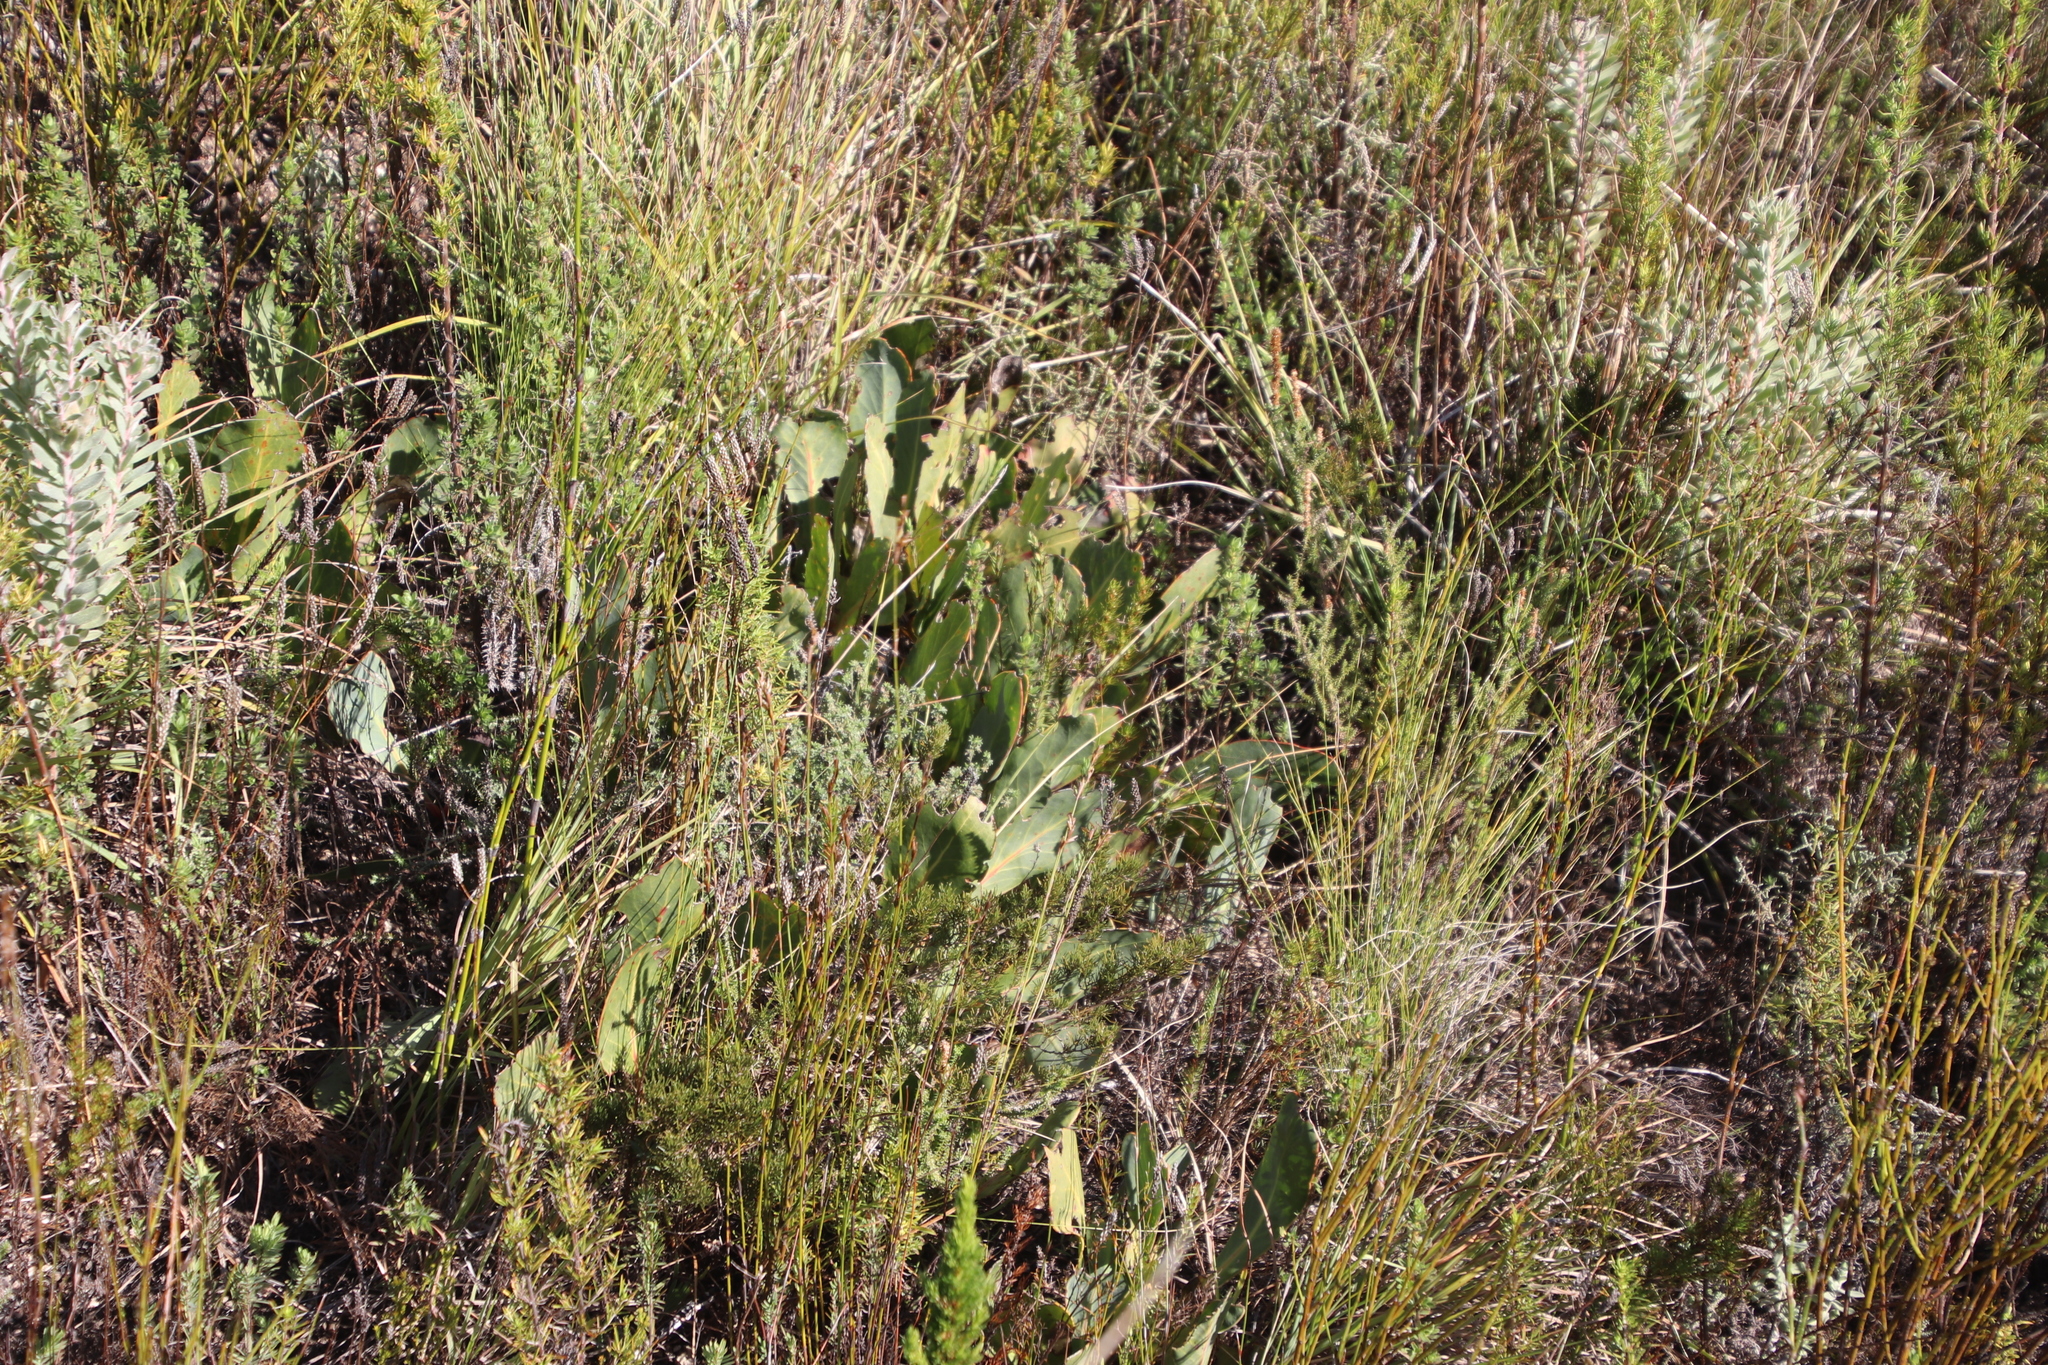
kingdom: Plantae
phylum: Tracheophyta
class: Magnoliopsida
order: Proteales
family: Proteaceae
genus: Protea
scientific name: Protea acaulos
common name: Common ground sugarbush
